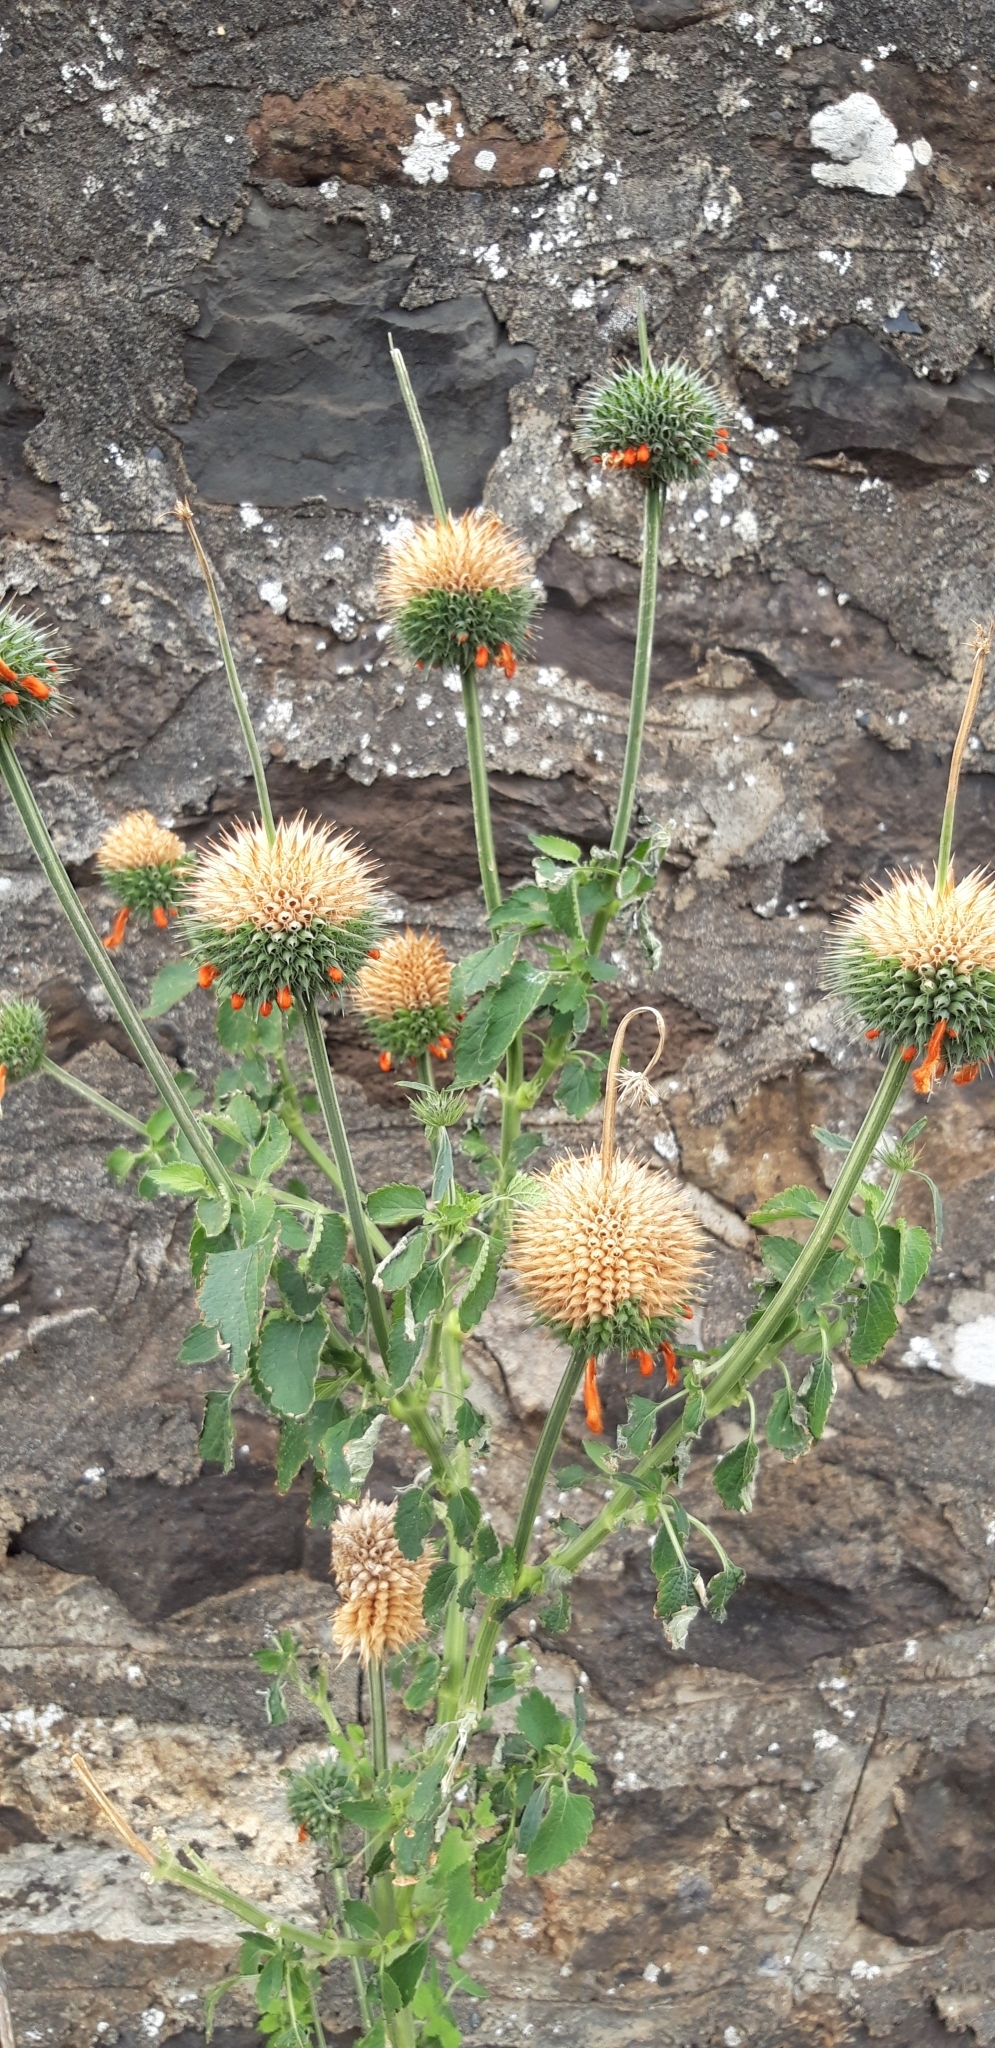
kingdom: Plantae
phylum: Tracheophyta
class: Magnoliopsida
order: Lamiales
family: Lamiaceae
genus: Leonotis
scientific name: Leonotis nepetifolia
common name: Christmas candlestick
